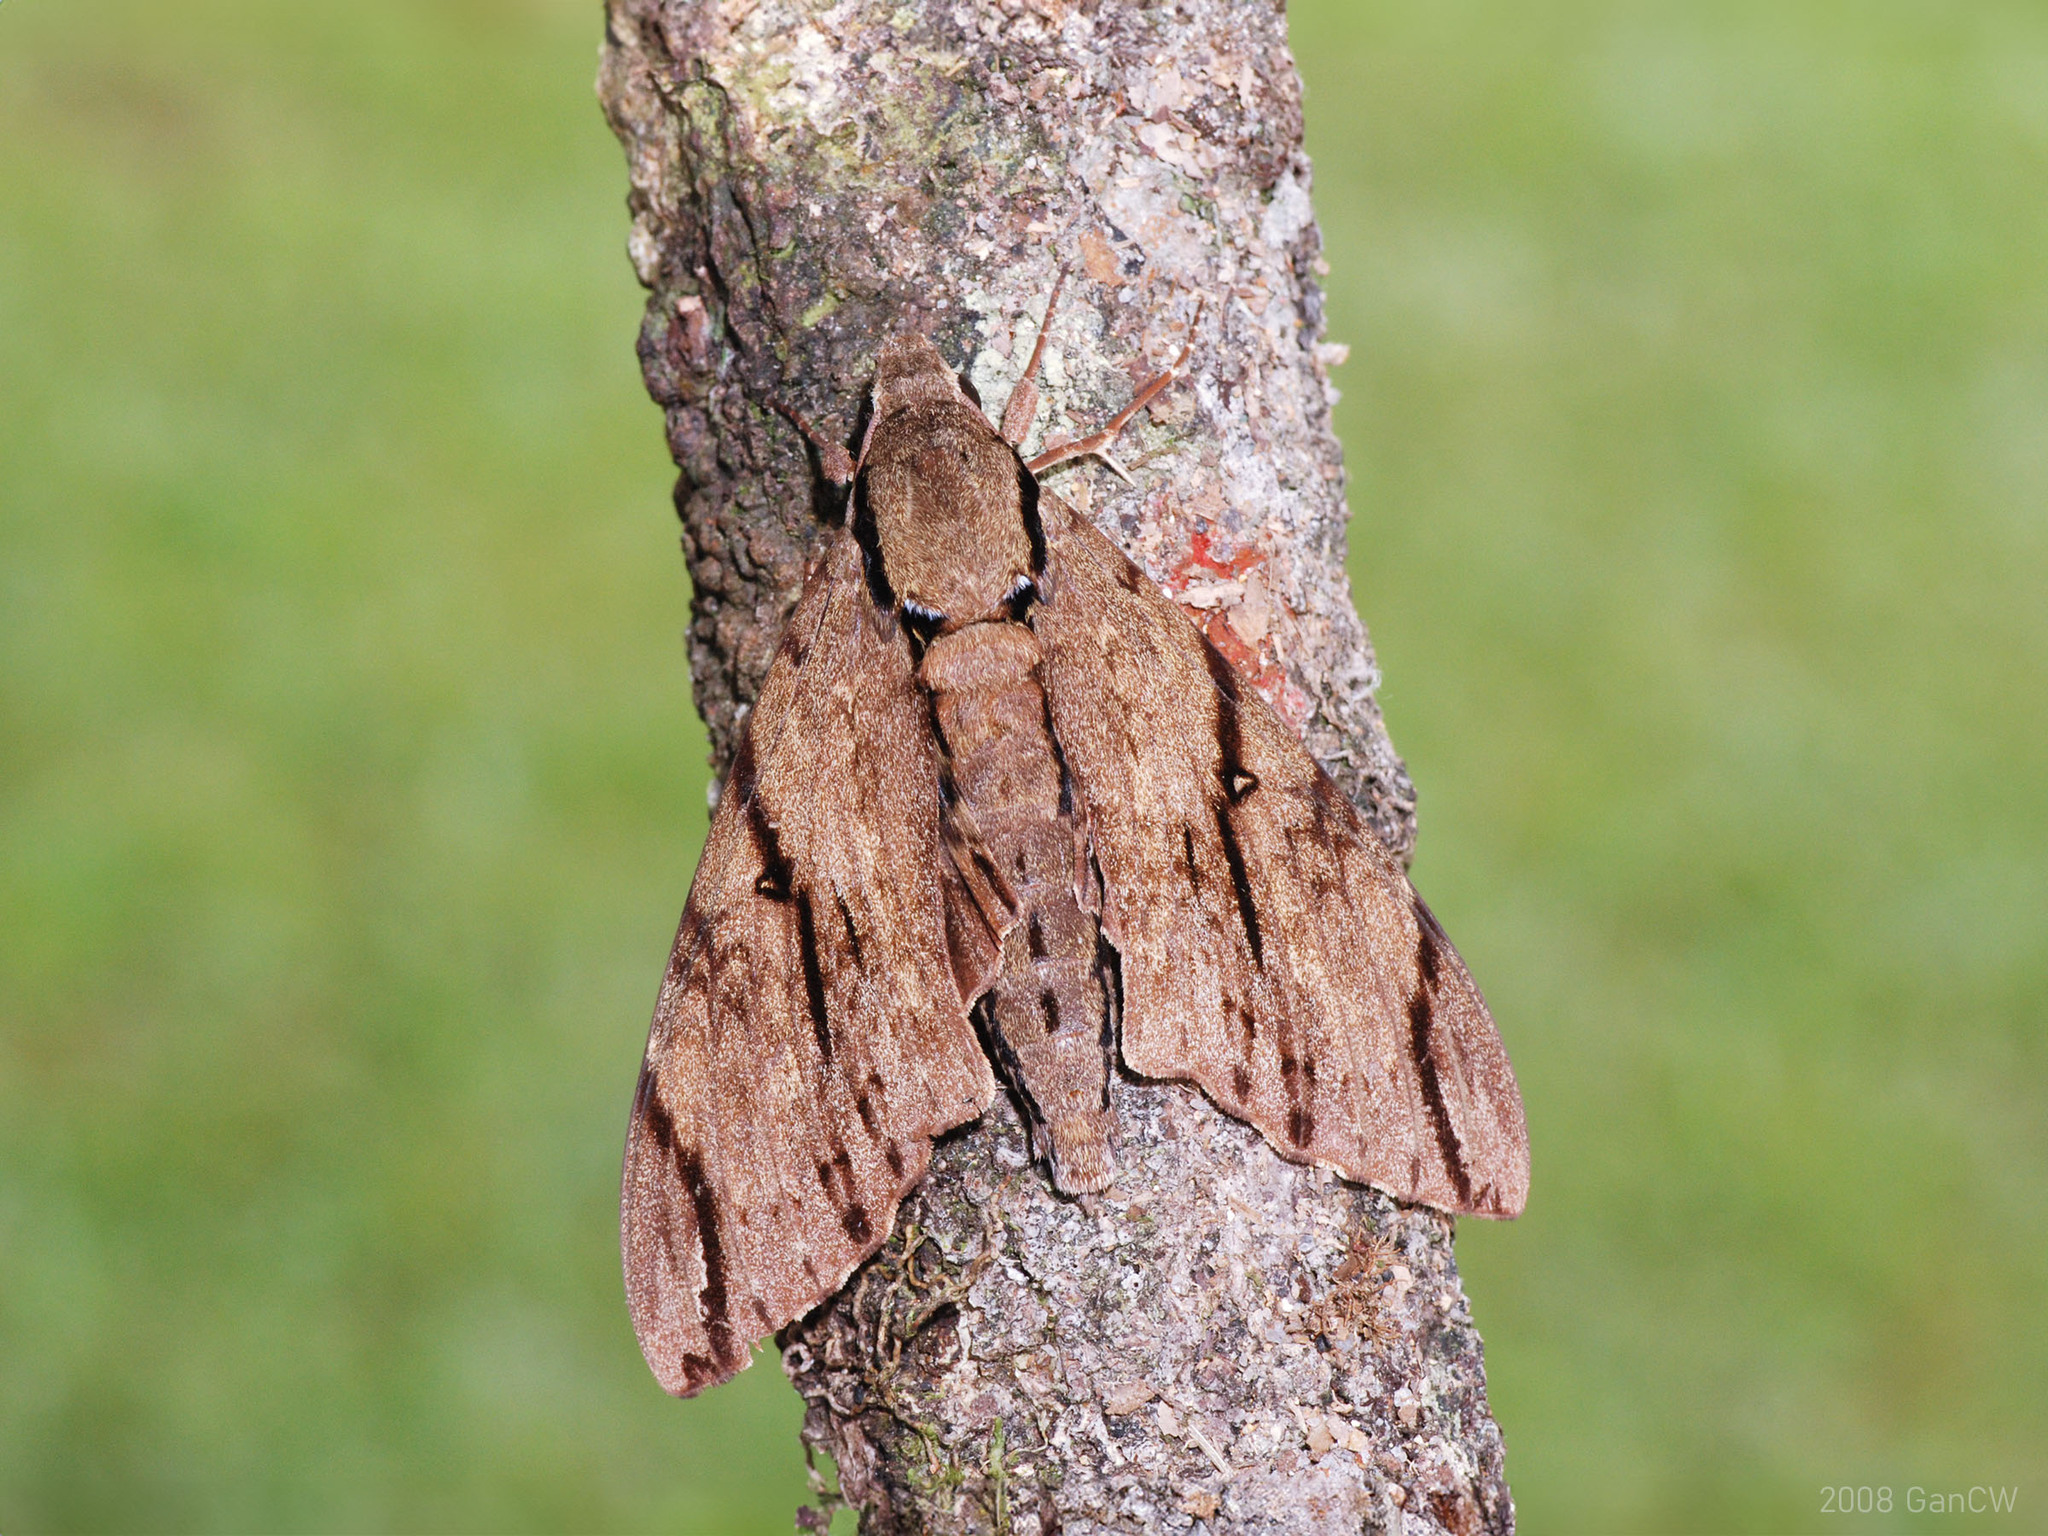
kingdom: Animalia
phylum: Arthropoda
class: Insecta
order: Lepidoptera
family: Sphingidae
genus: Cerberonoton
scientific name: Cerberonoton rubescens
